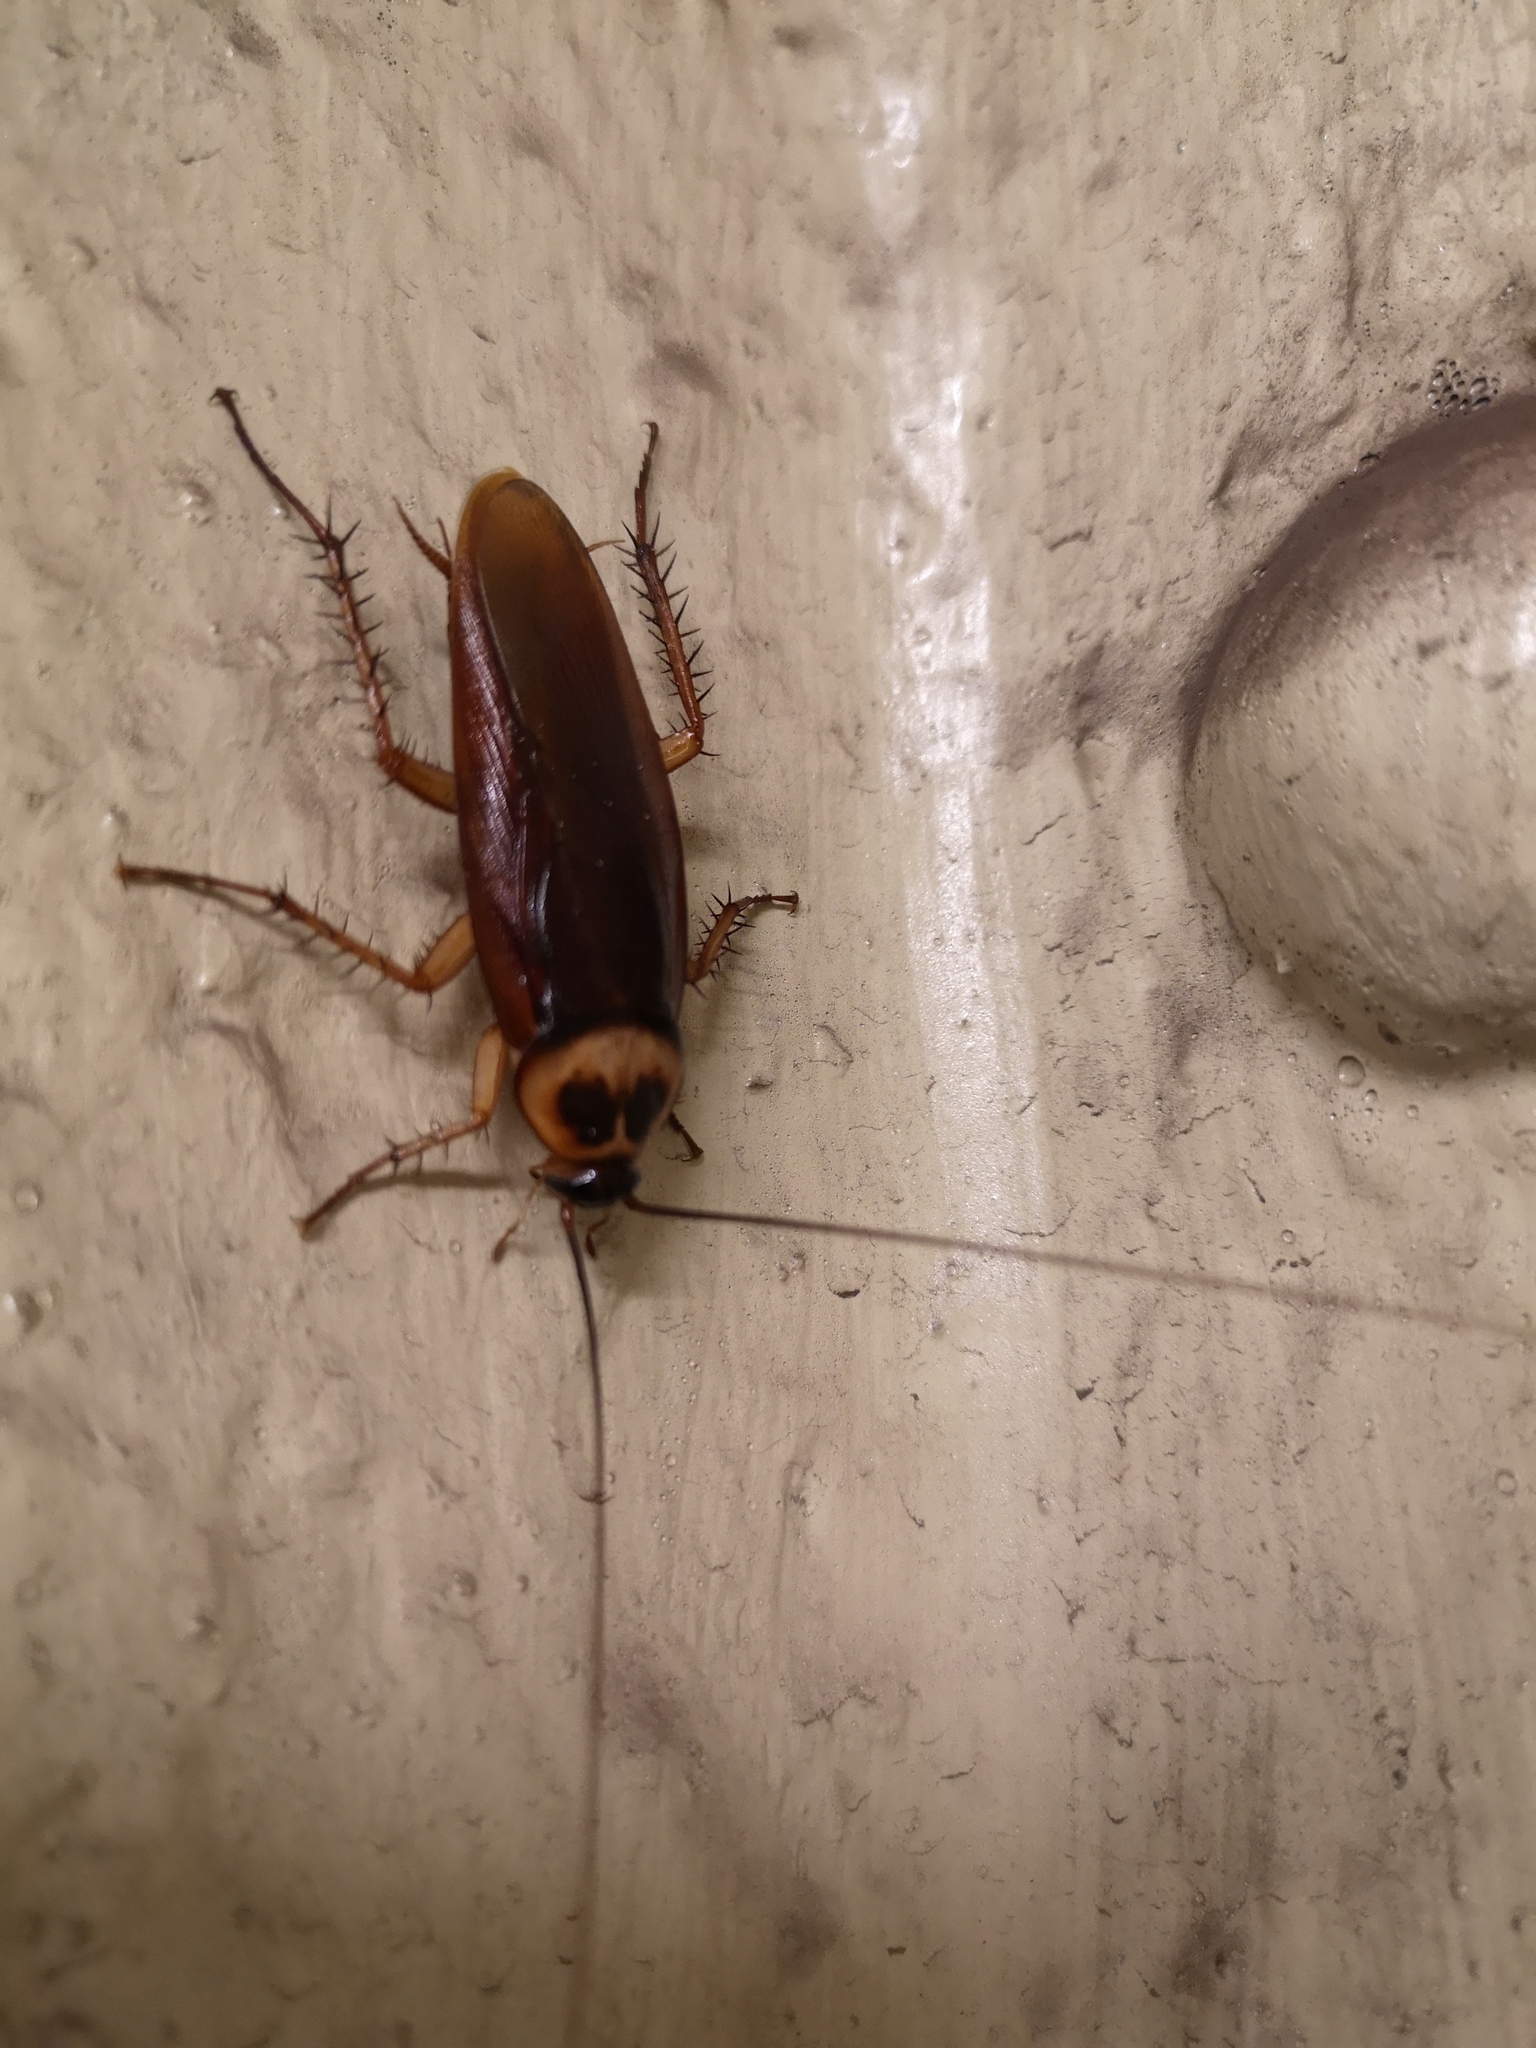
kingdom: Animalia
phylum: Arthropoda
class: Insecta
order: Blattodea
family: Blattidae
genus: Periplaneta
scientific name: Periplaneta americana
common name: American cockroach
